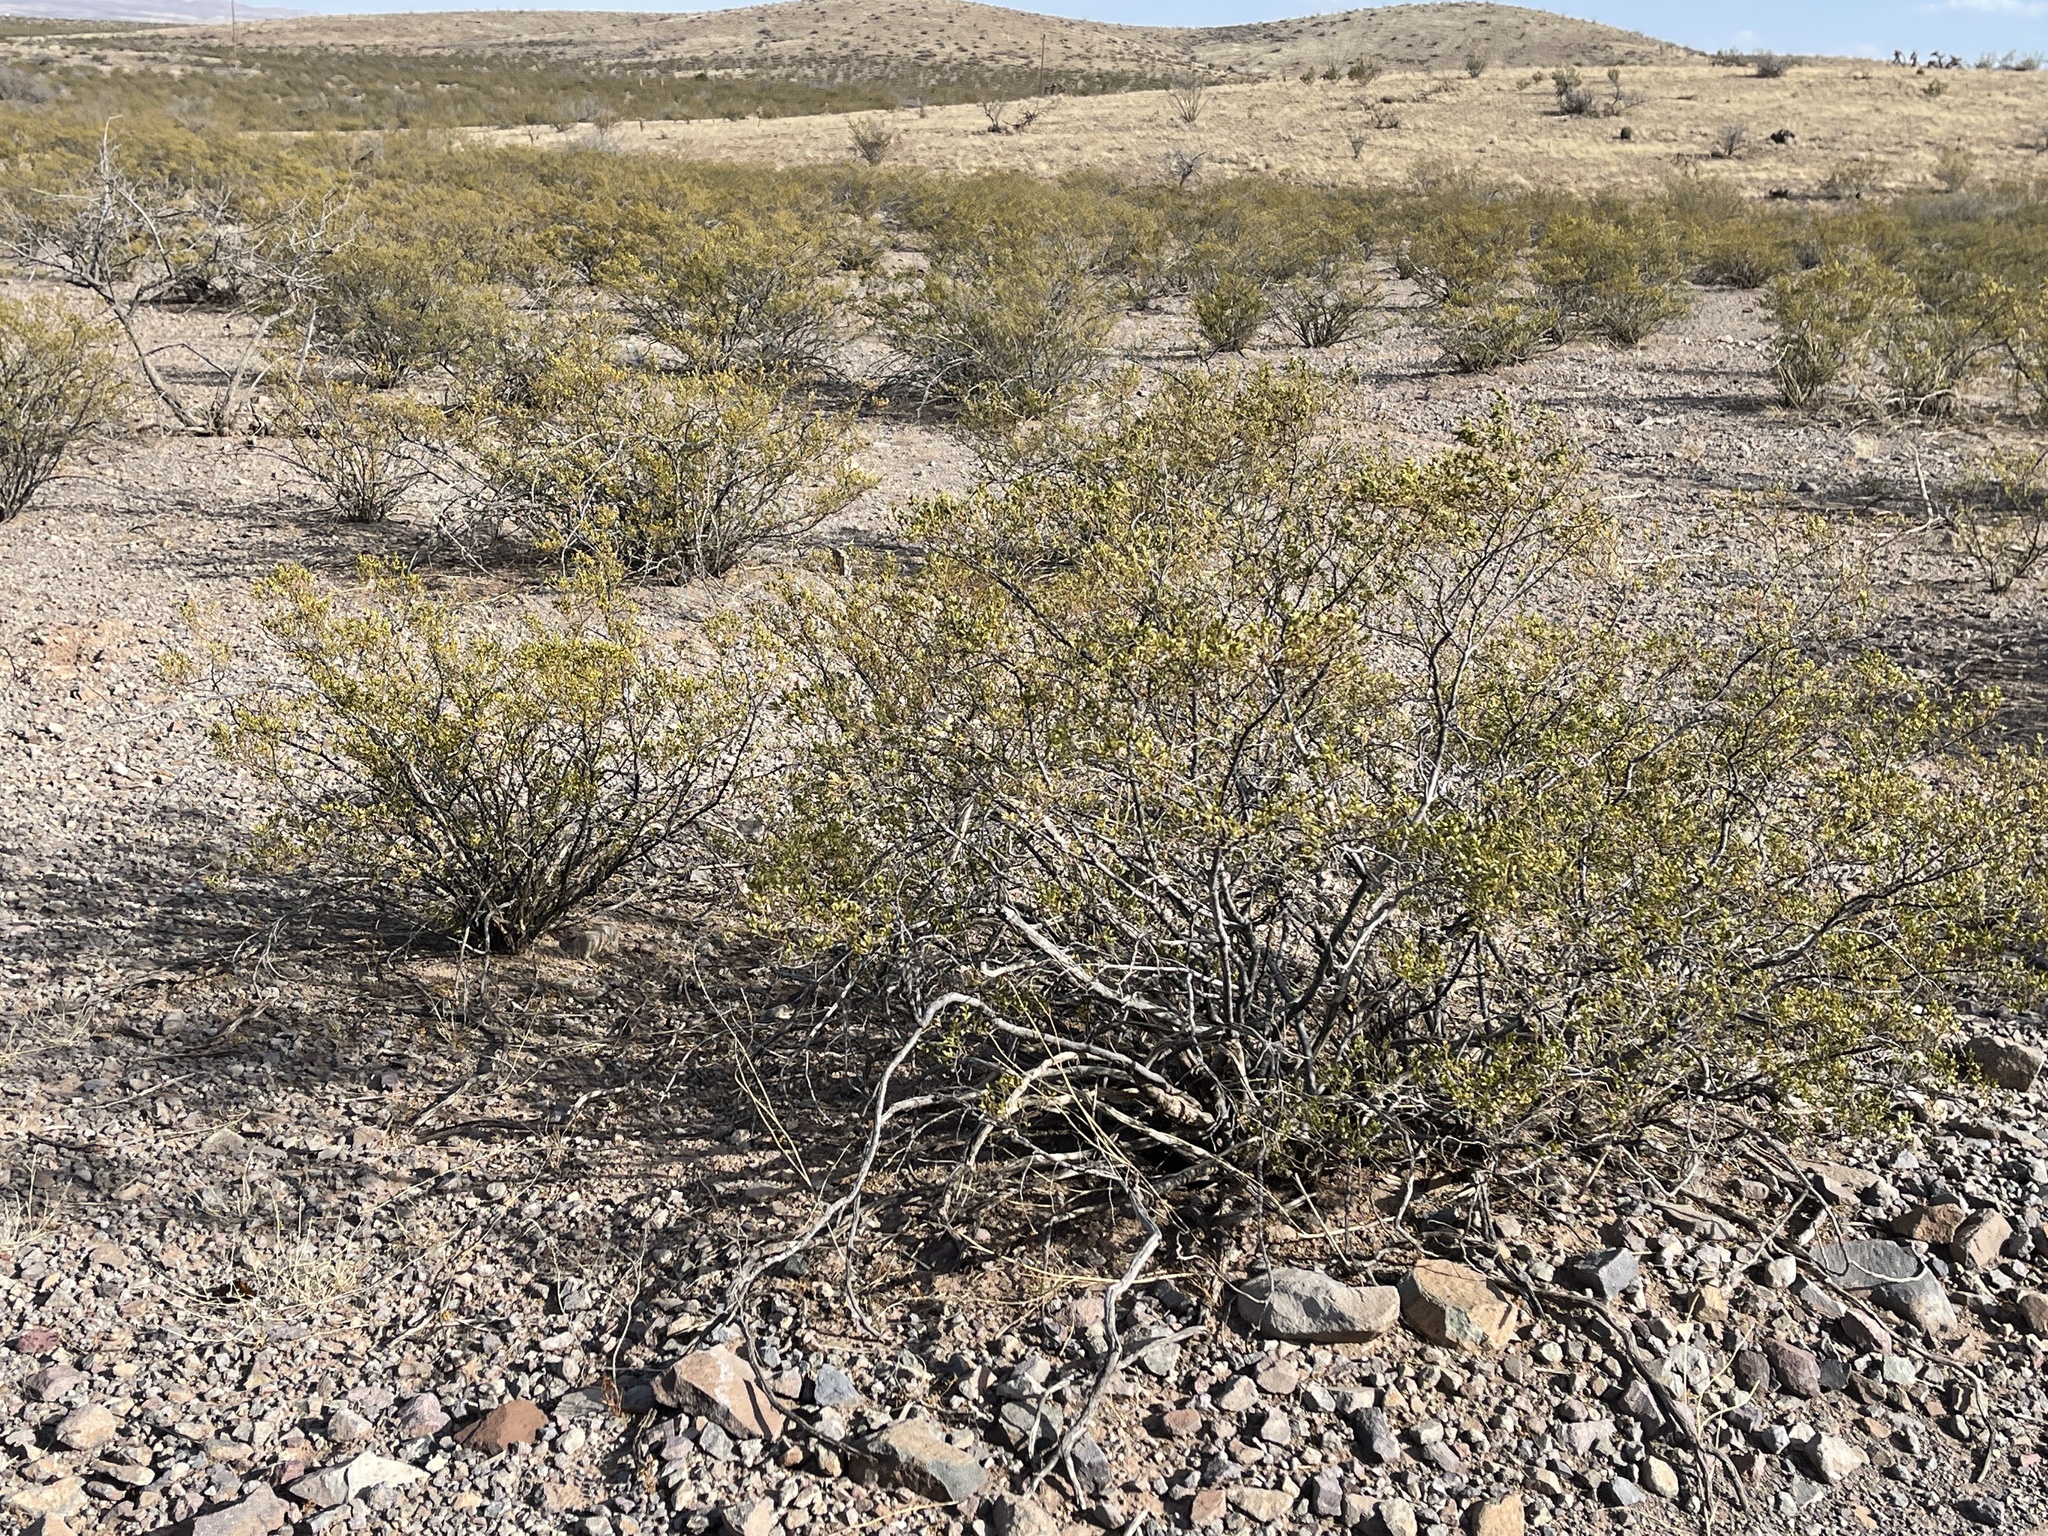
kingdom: Plantae
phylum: Tracheophyta
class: Magnoliopsida
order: Zygophyllales
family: Zygophyllaceae
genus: Larrea
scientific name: Larrea tridentata
